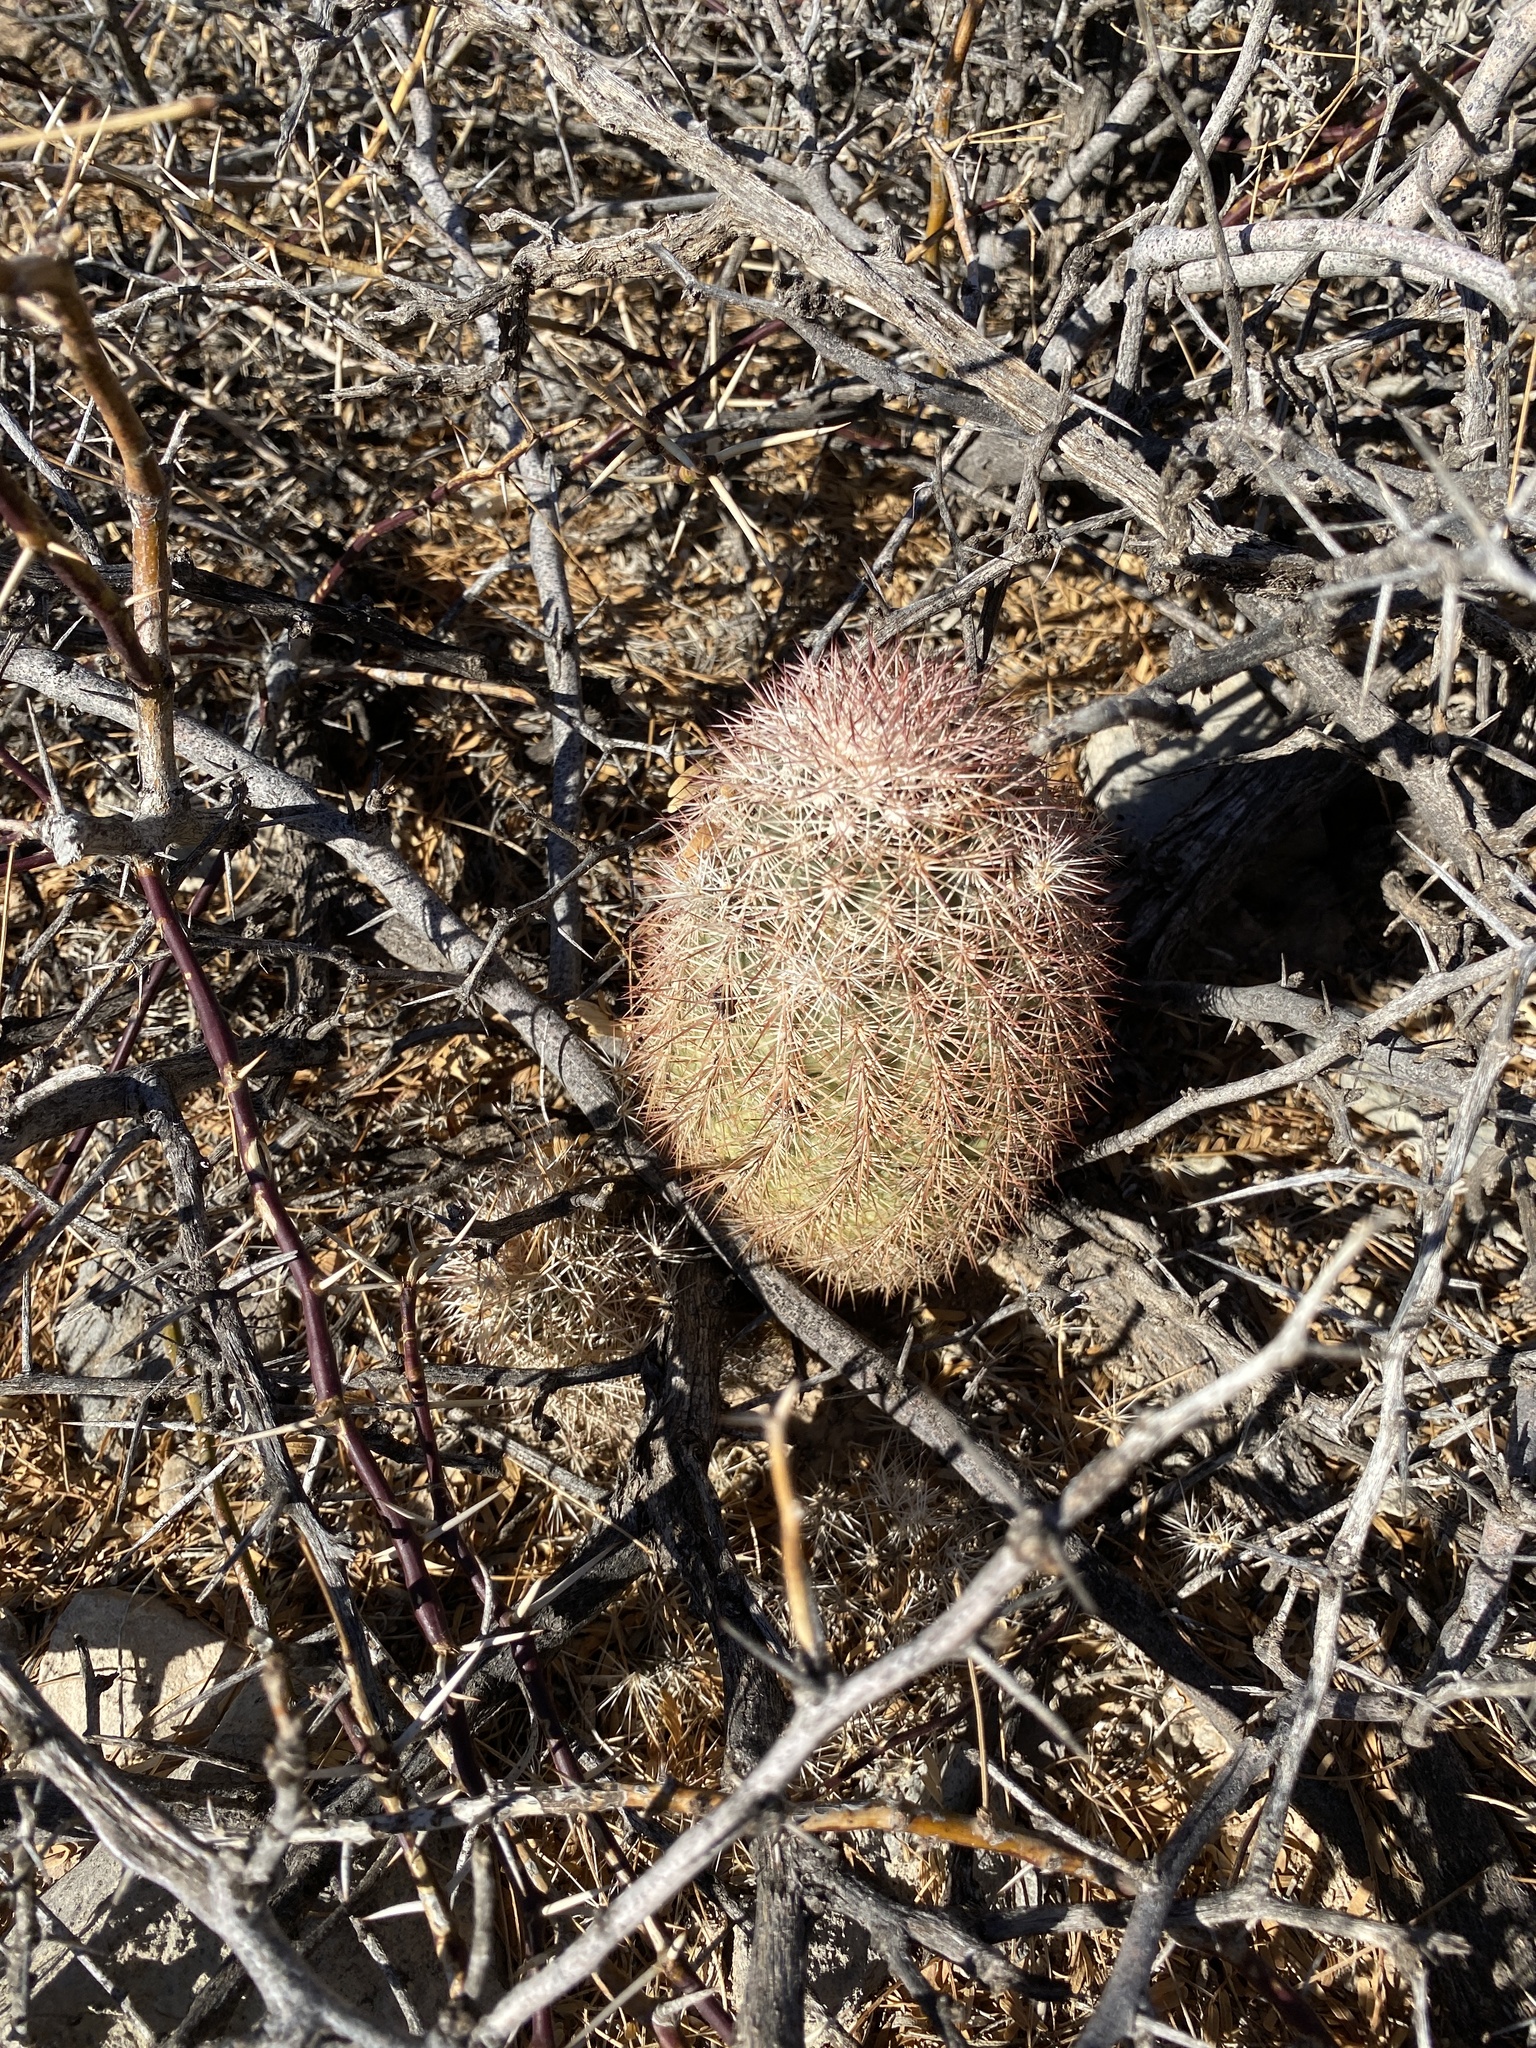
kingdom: Plantae
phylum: Tracheophyta
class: Magnoliopsida
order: Caryophyllales
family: Cactaceae
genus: Echinocereus
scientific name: Echinocereus dasyacanthus
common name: Spiny hedgehog cactus
